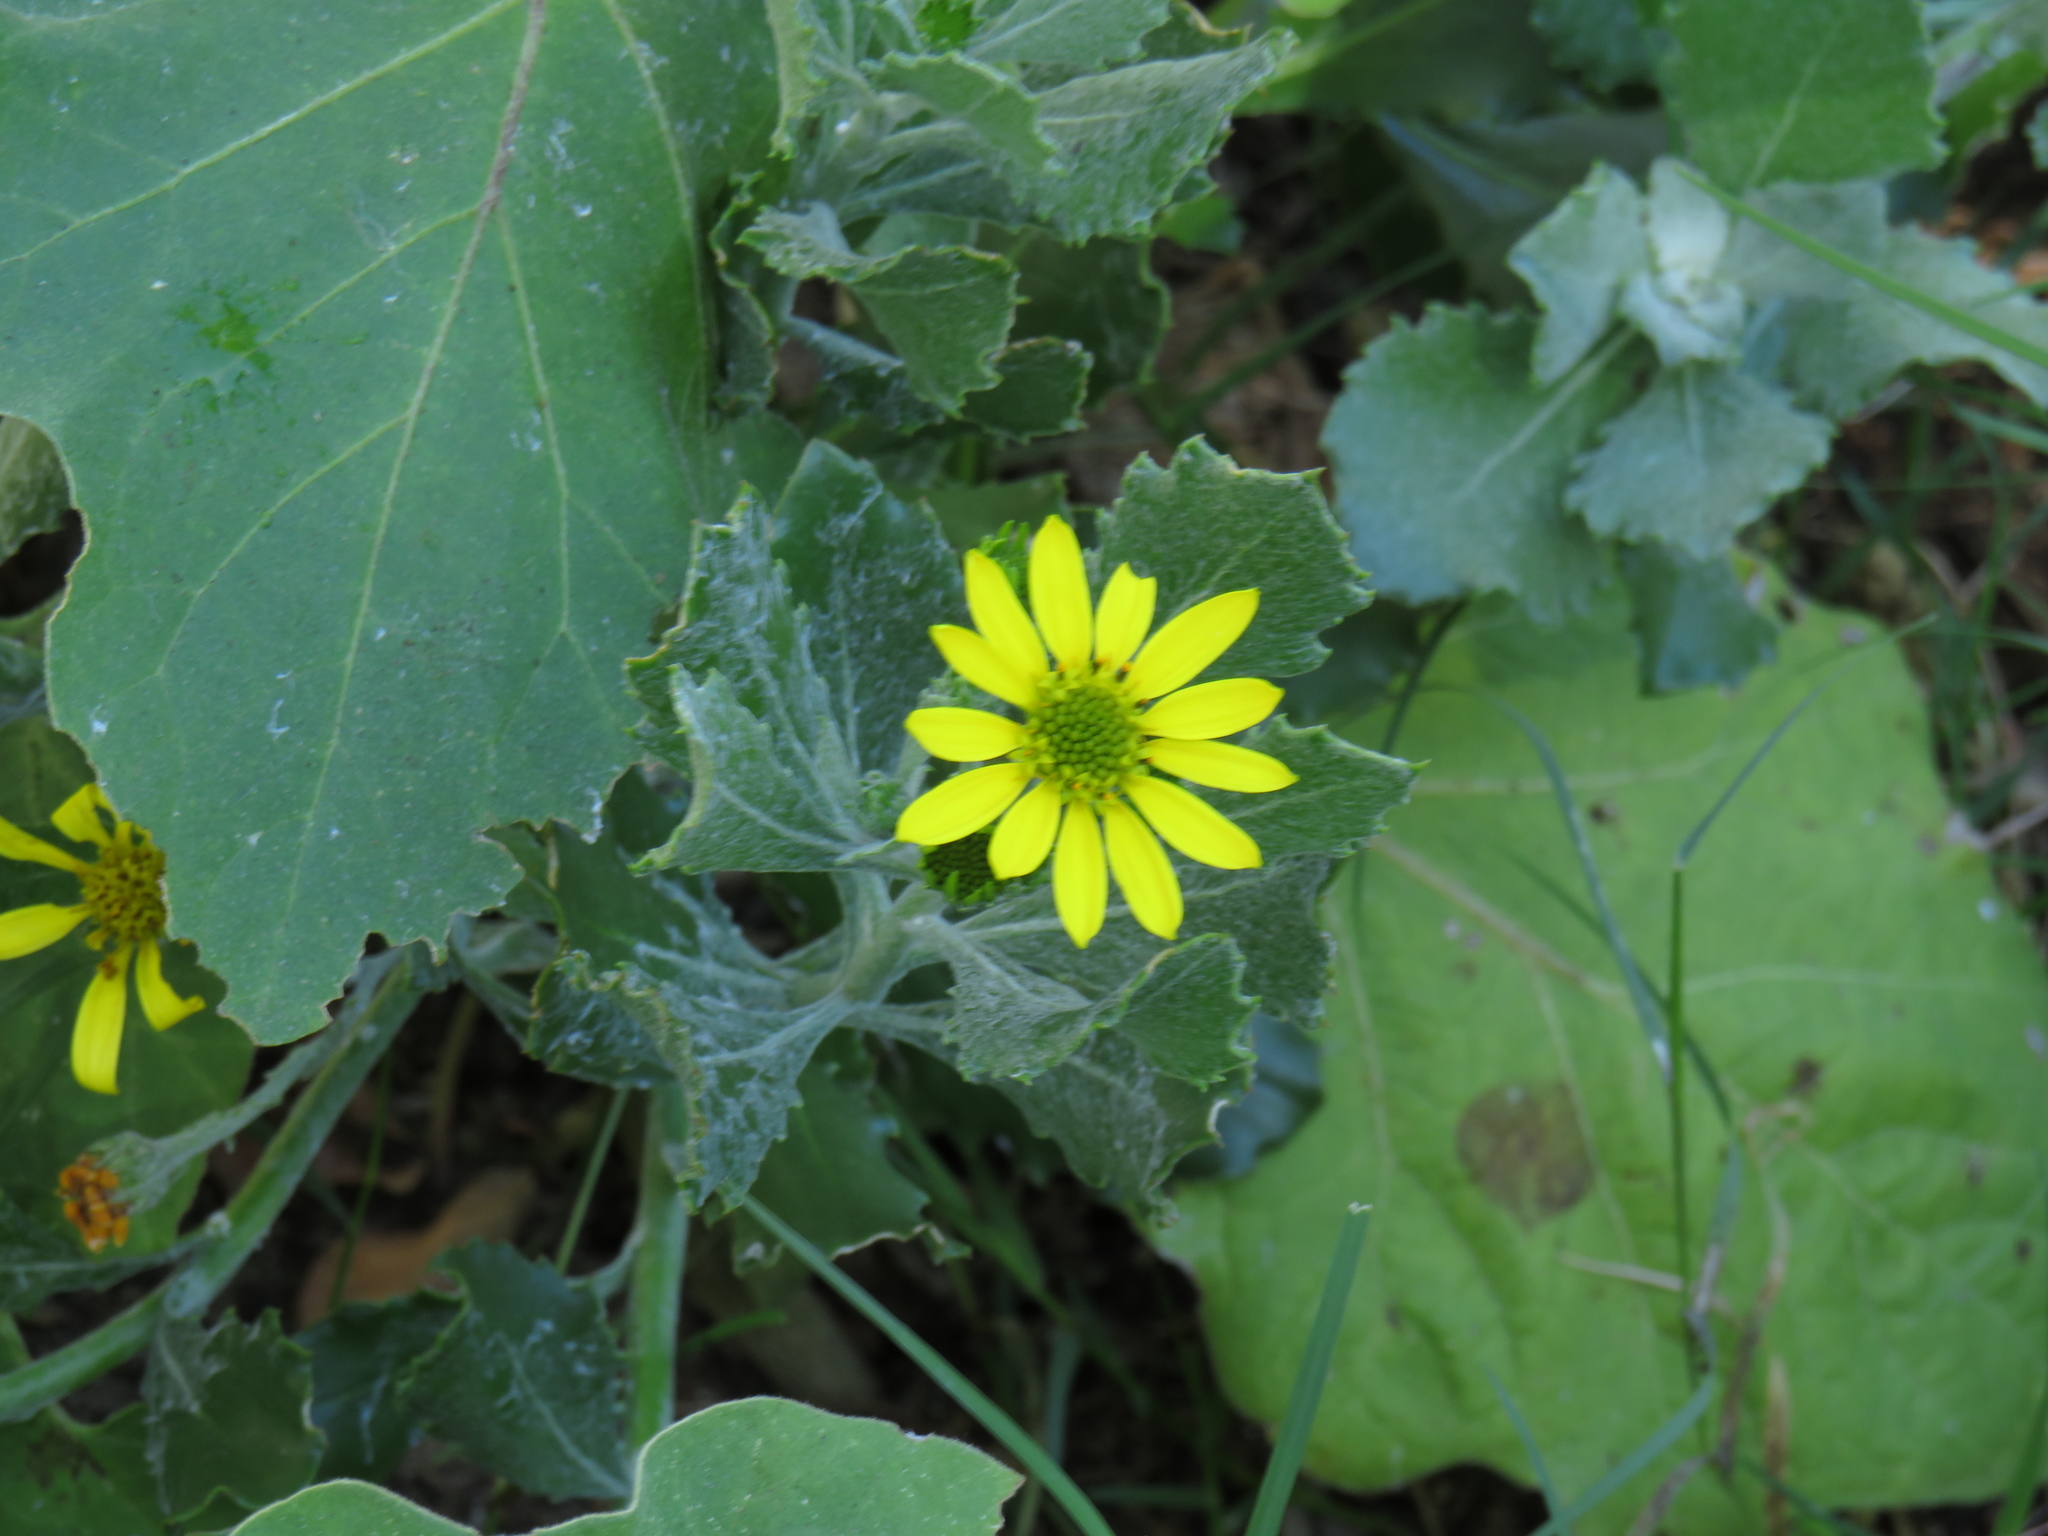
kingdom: Plantae
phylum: Tracheophyta
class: Magnoliopsida
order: Asterales
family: Asteraceae
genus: Osteospermum
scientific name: Osteospermum moniliferum
